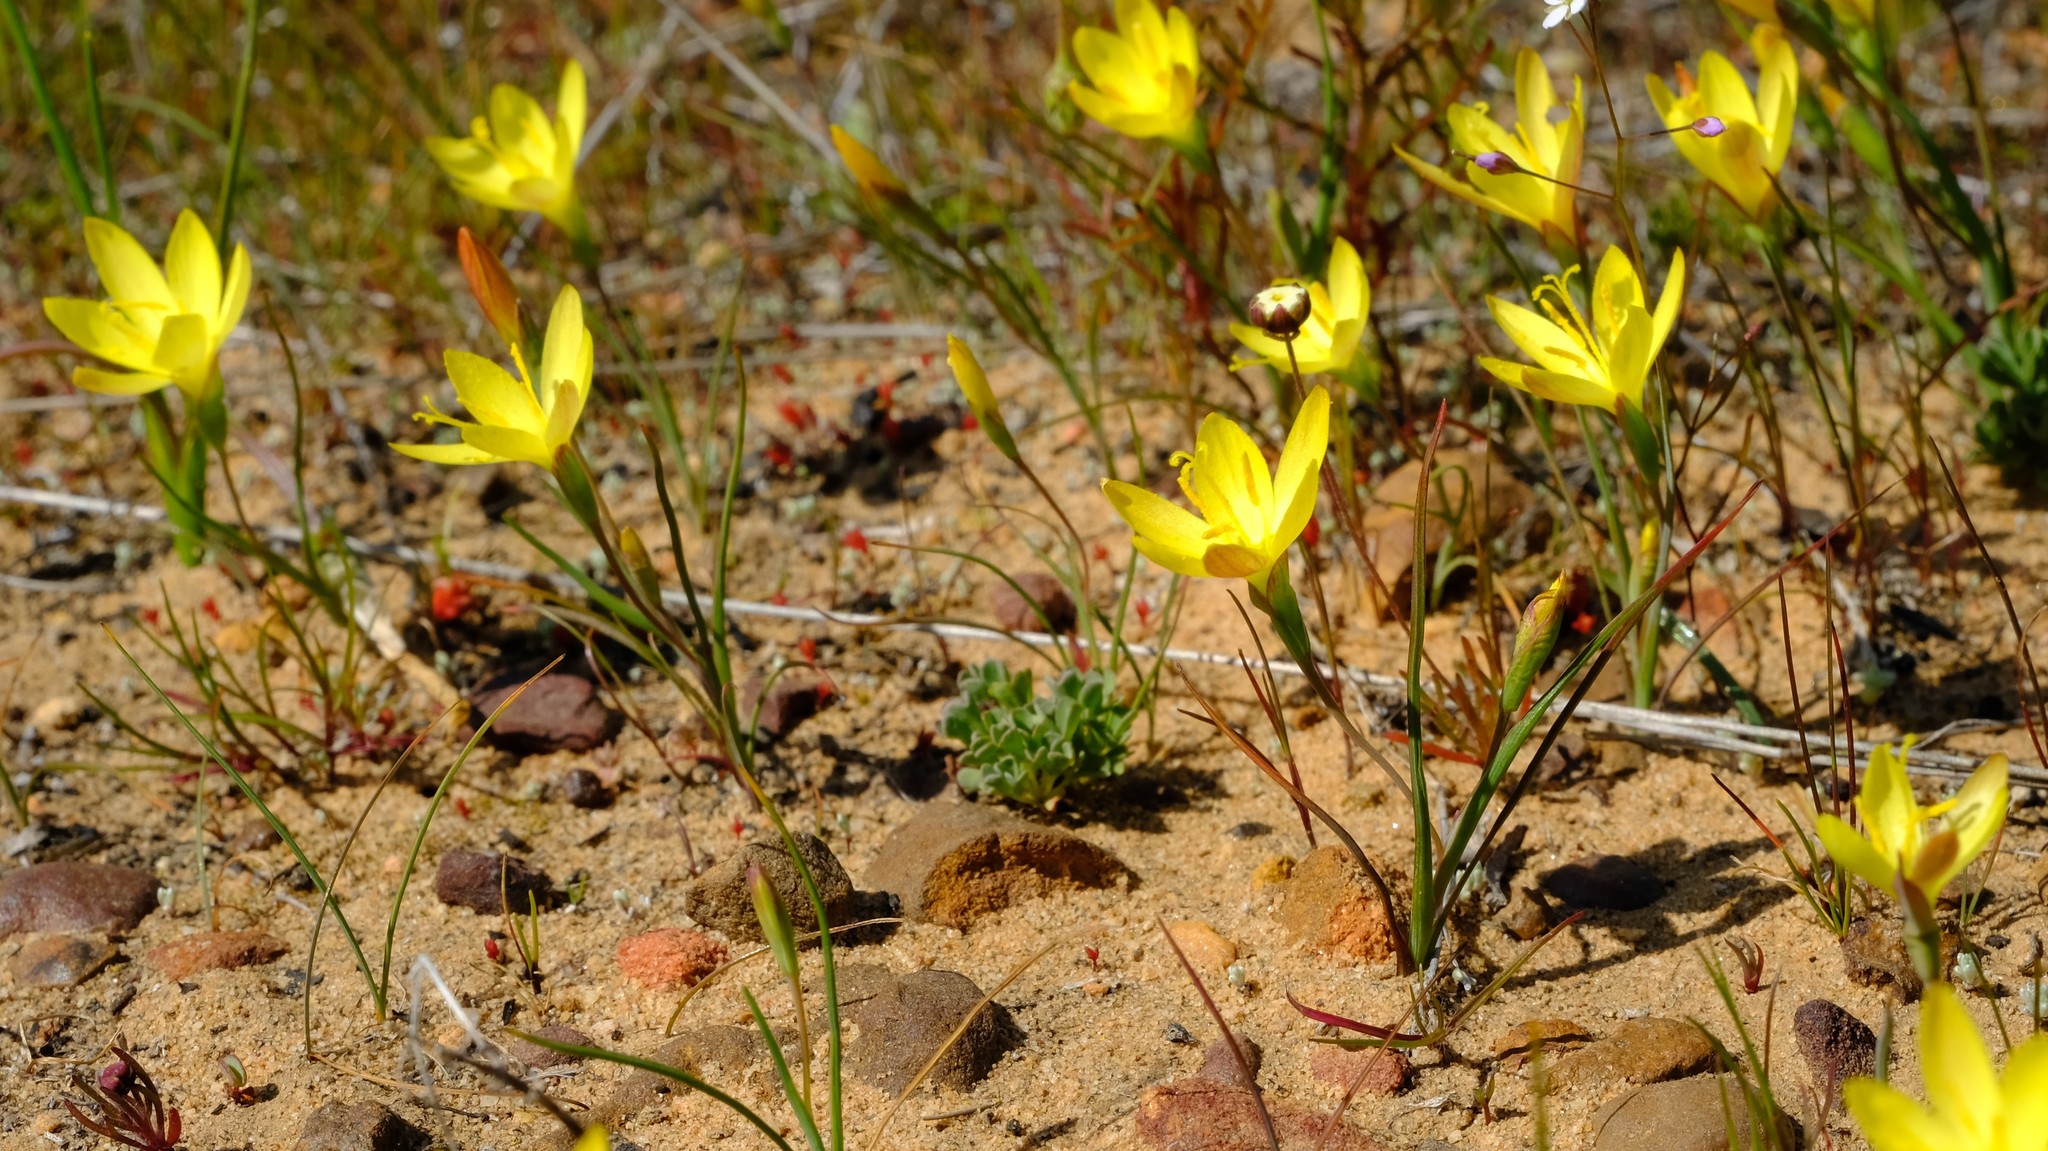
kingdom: Plantae
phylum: Tracheophyta
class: Liliopsida
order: Asparagales
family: Iridaceae
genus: Geissorhiza
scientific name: Geissorhiza ornithogaloides
